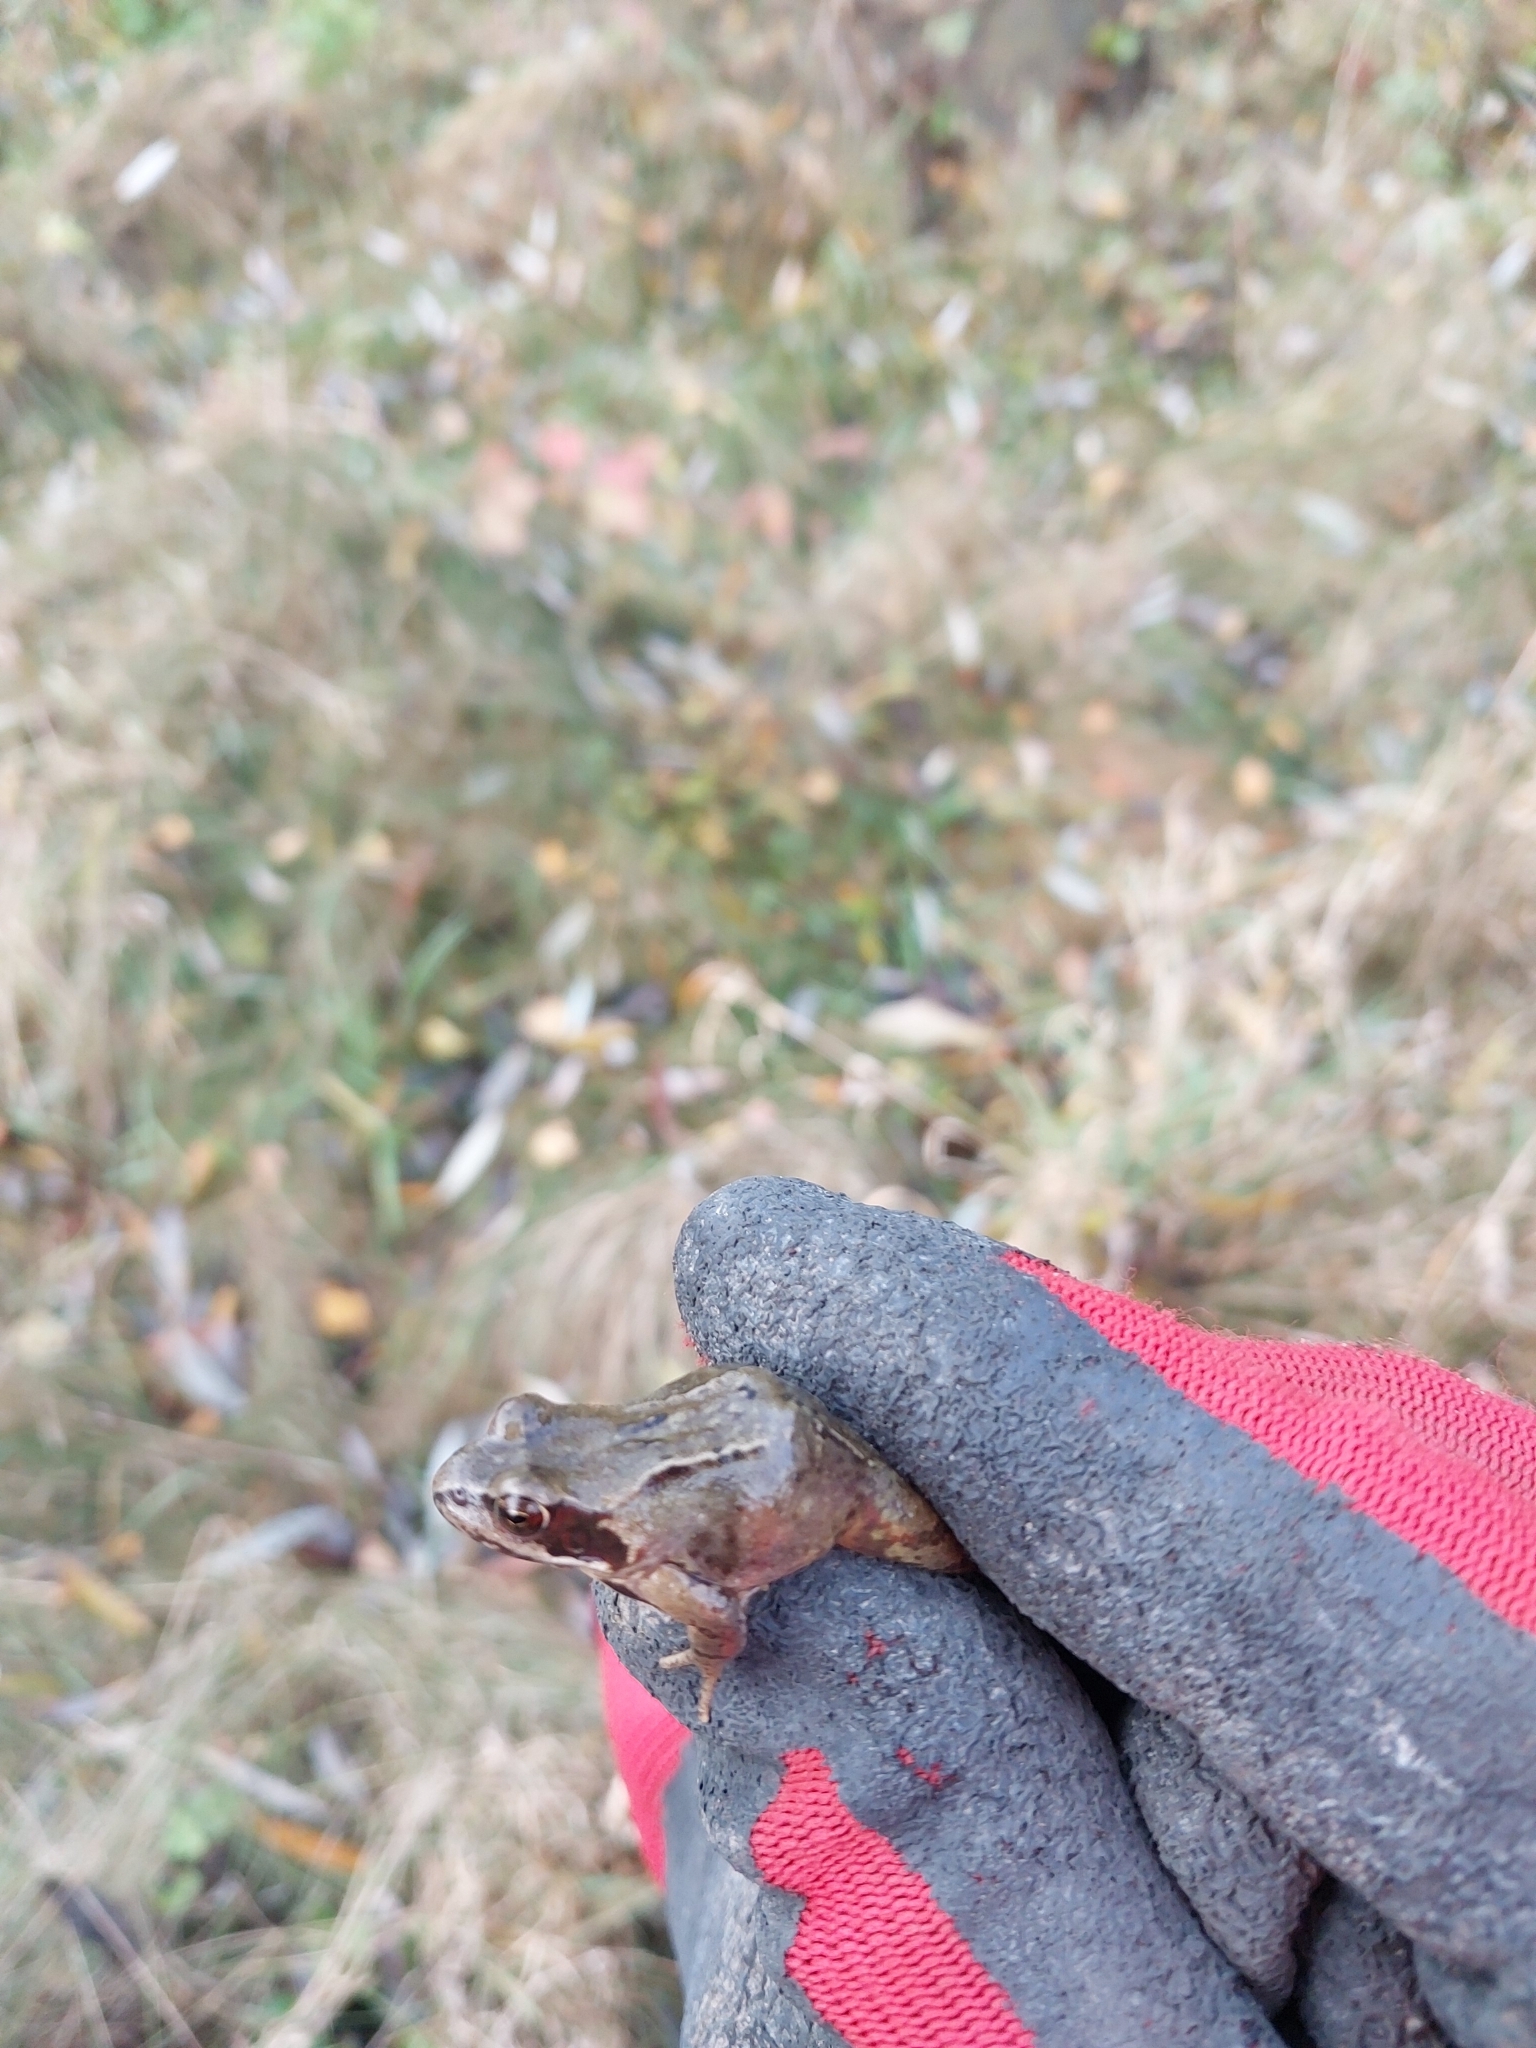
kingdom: Animalia
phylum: Chordata
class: Amphibia
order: Anura
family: Ranidae
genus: Rana
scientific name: Rana temporaria
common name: Common frog
